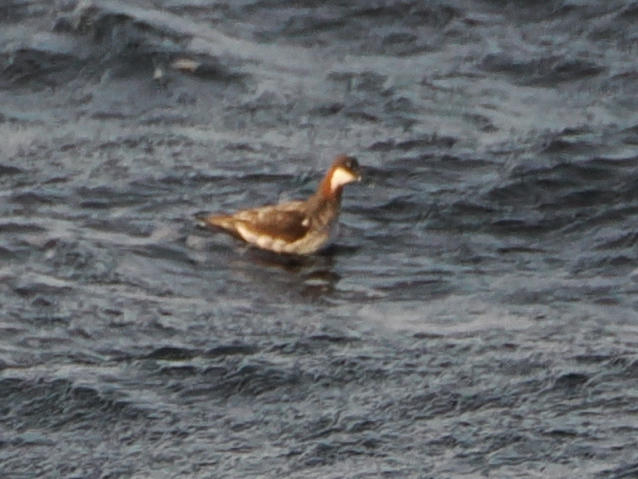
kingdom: Animalia
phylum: Chordata
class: Aves
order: Charadriiformes
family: Scolopacidae
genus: Phalaropus
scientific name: Phalaropus lobatus
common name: Red-necked phalarope
